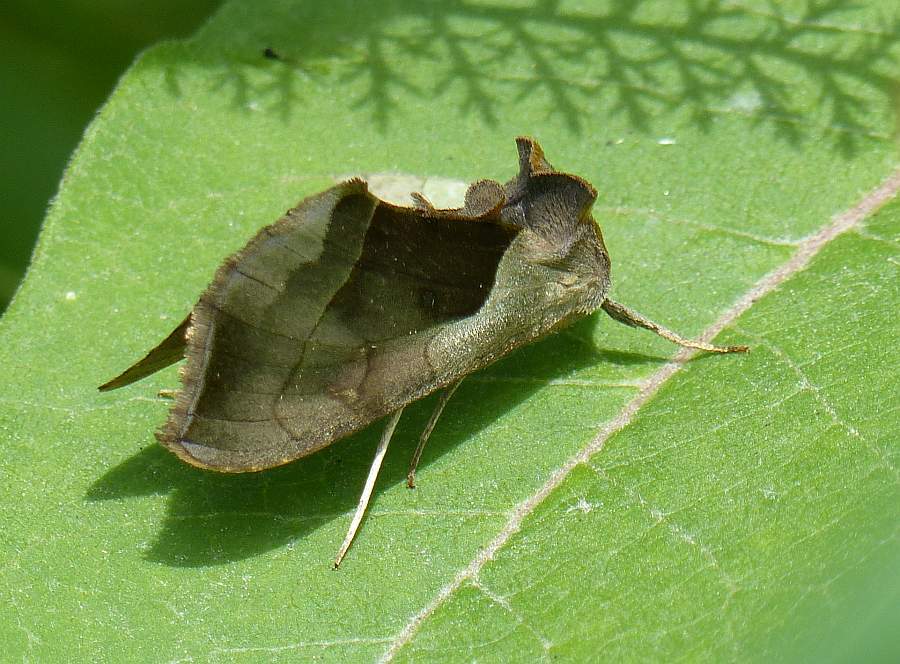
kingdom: Animalia
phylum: Arthropoda
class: Insecta
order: Lepidoptera
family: Noctuidae
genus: Diachrysia
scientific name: Diachrysia balluca
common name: Green-patched looper moth
